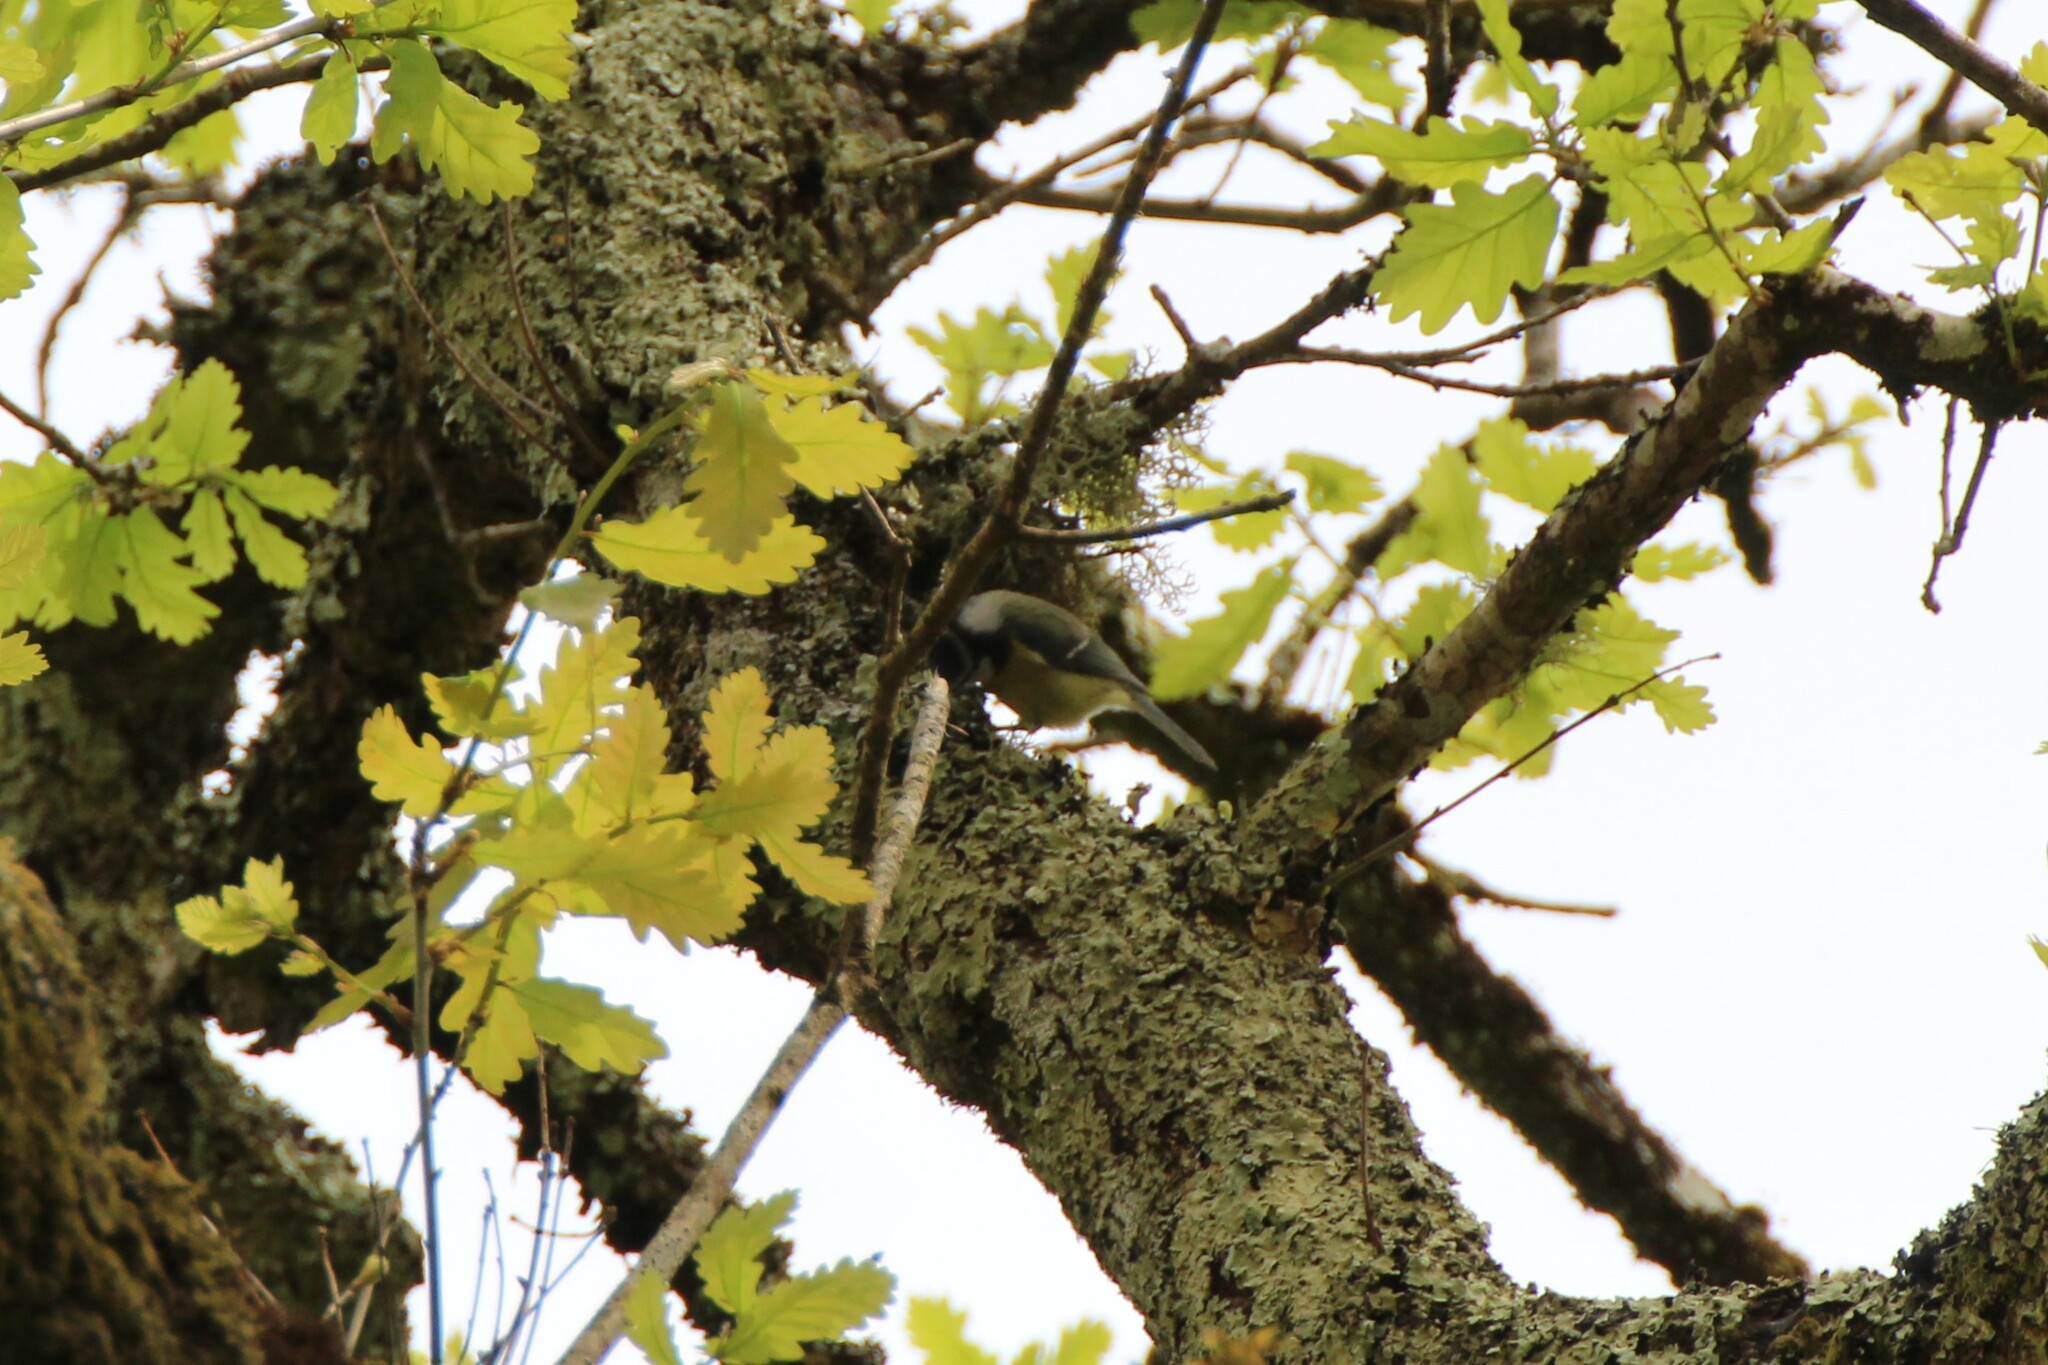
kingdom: Animalia
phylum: Chordata
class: Aves
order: Passeriformes
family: Paridae
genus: Cyanistes
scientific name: Cyanistes caeruleus
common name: Eurasian blue tit
